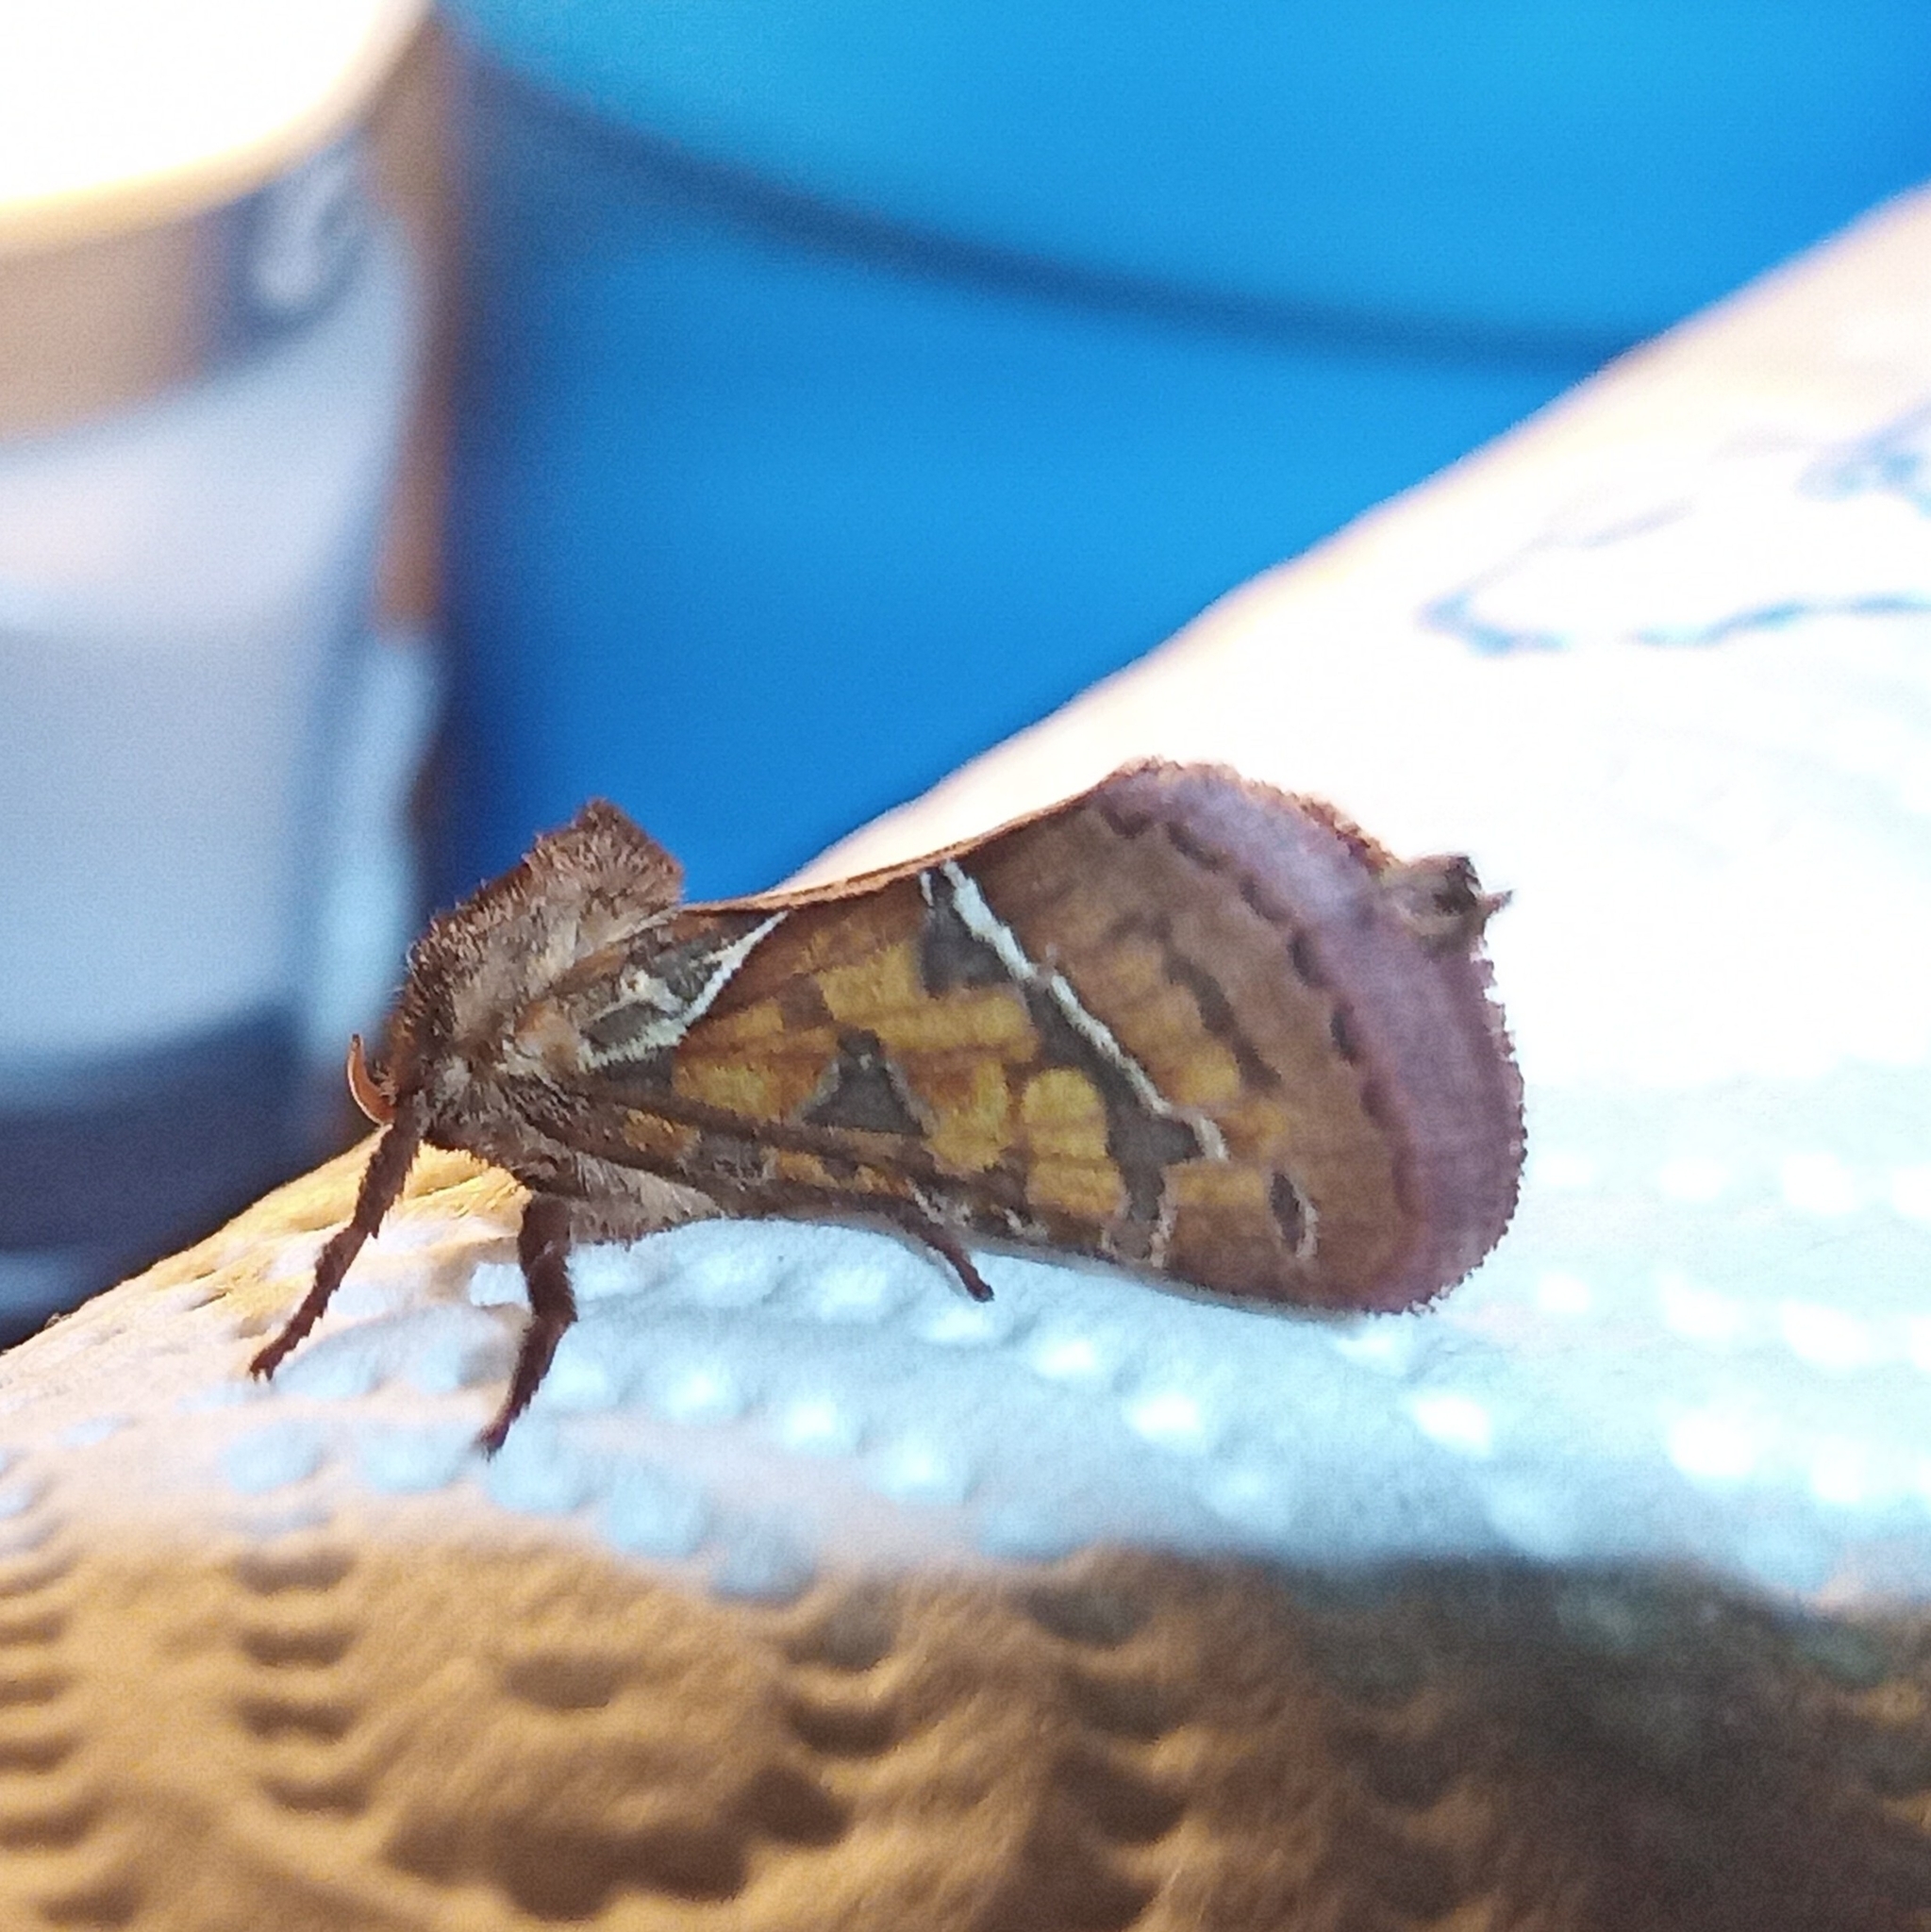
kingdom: Animalia
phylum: Arthropoda
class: Insecta
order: Lepidoptera
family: Hepialidae
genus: Triodia
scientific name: Triodia sylvina
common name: Orange swift
